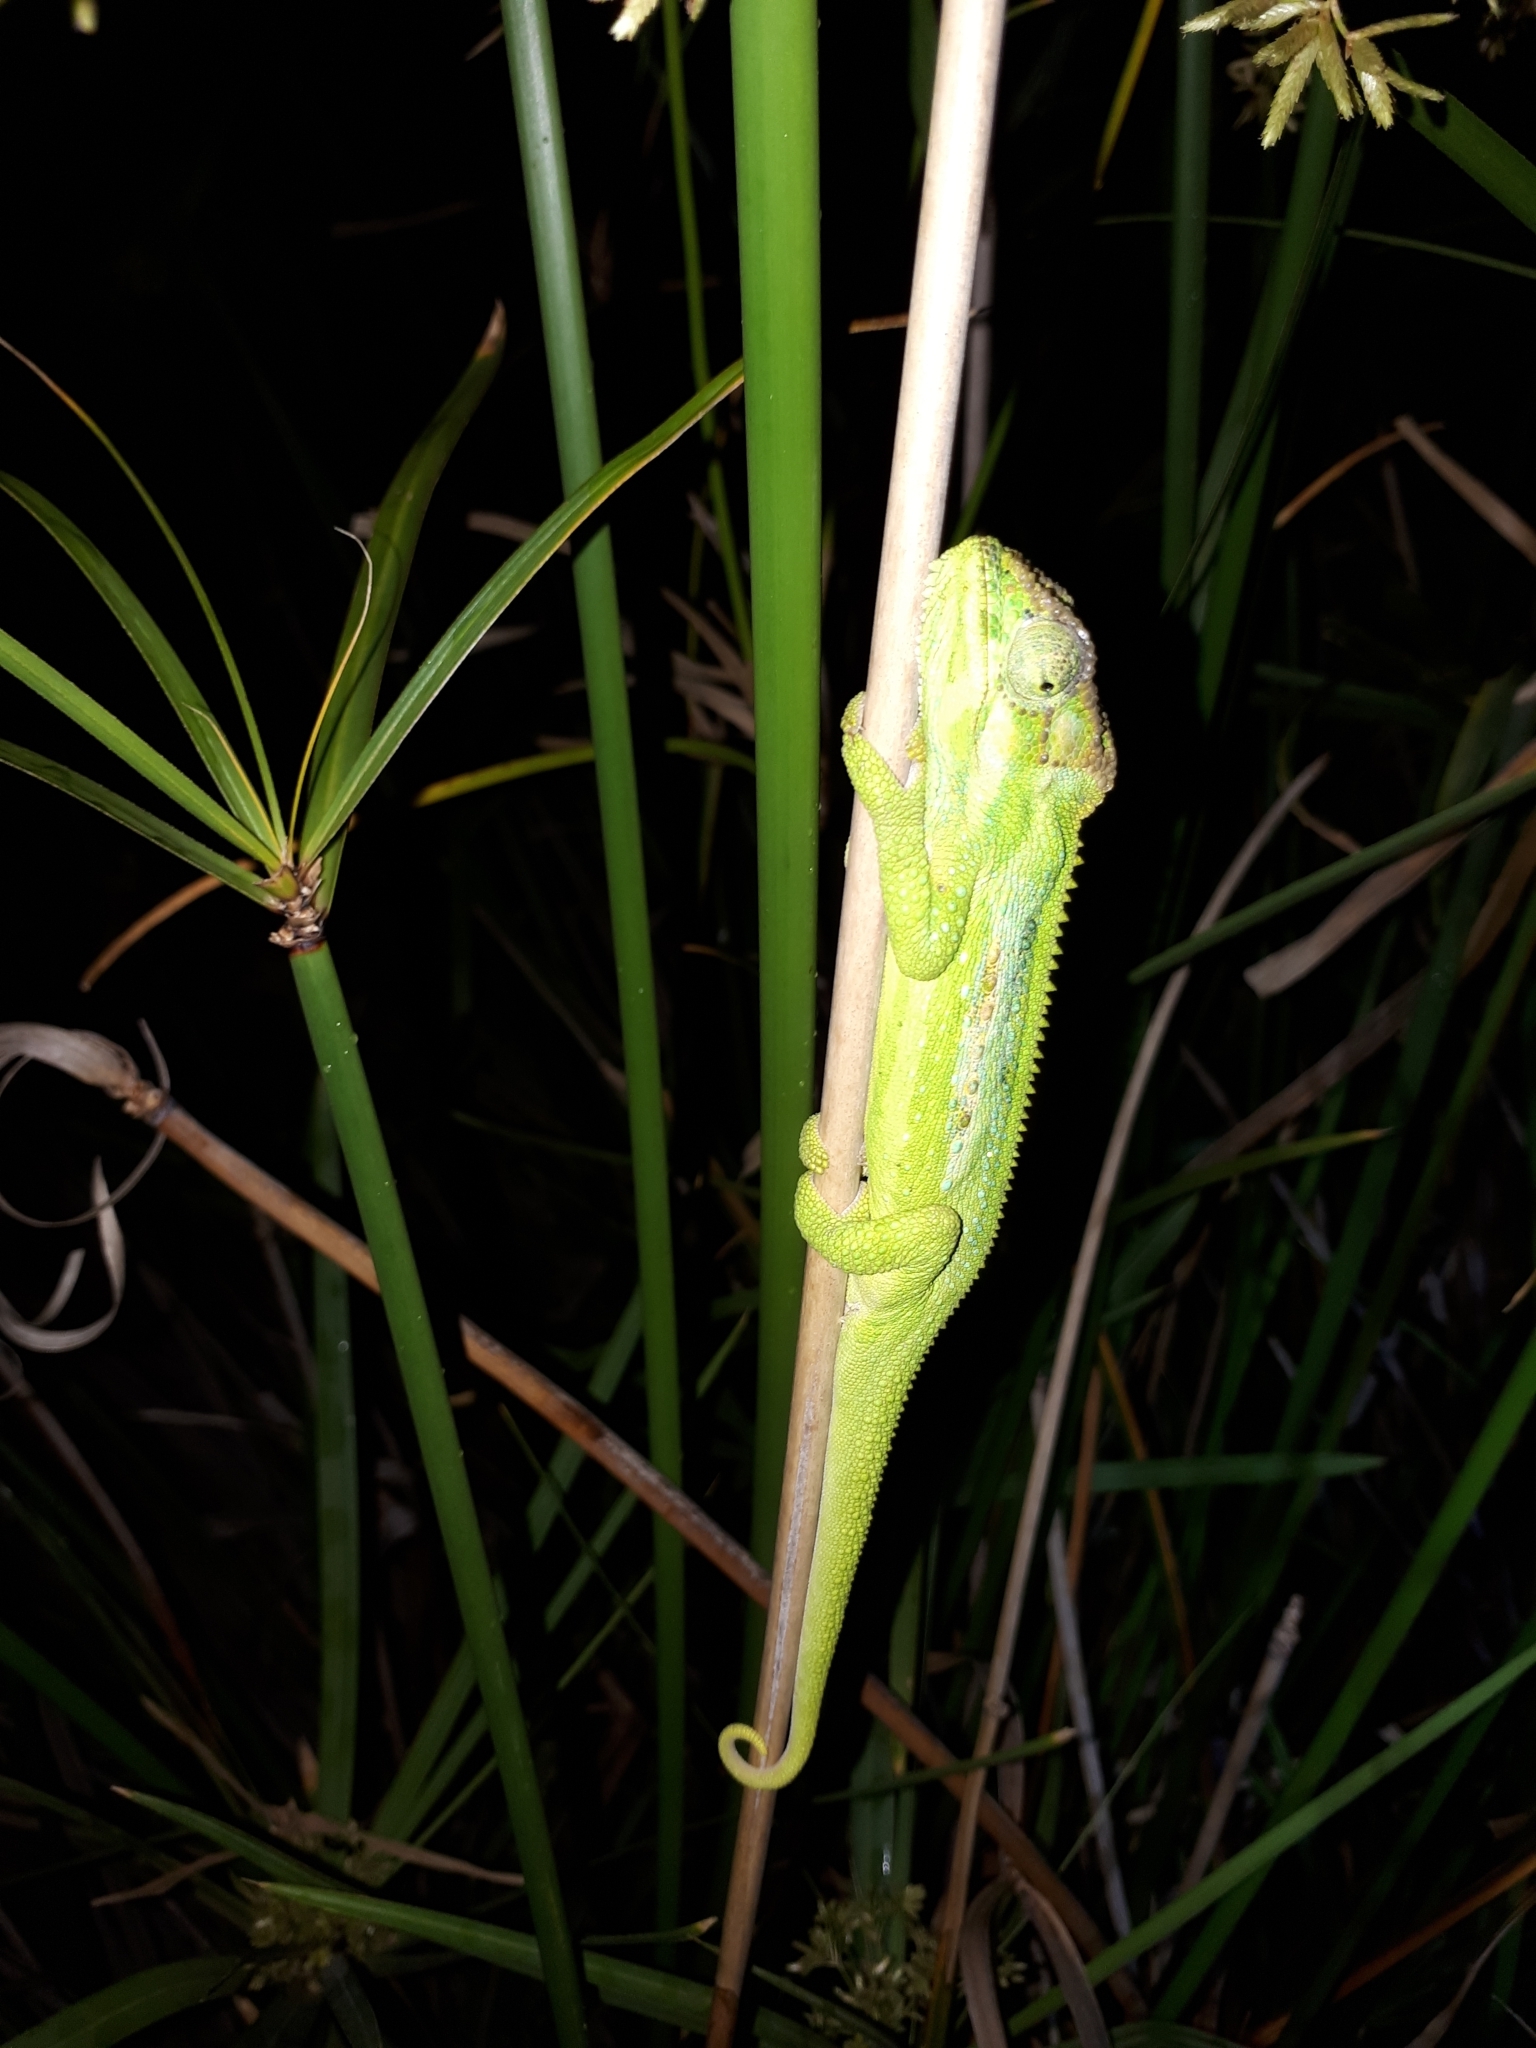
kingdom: Animalia
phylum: Chordata
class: Squamata
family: Chamaeleonidae
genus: Bradypodion
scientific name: Bradypodion pumilum
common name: Cape dwarf chameleon
